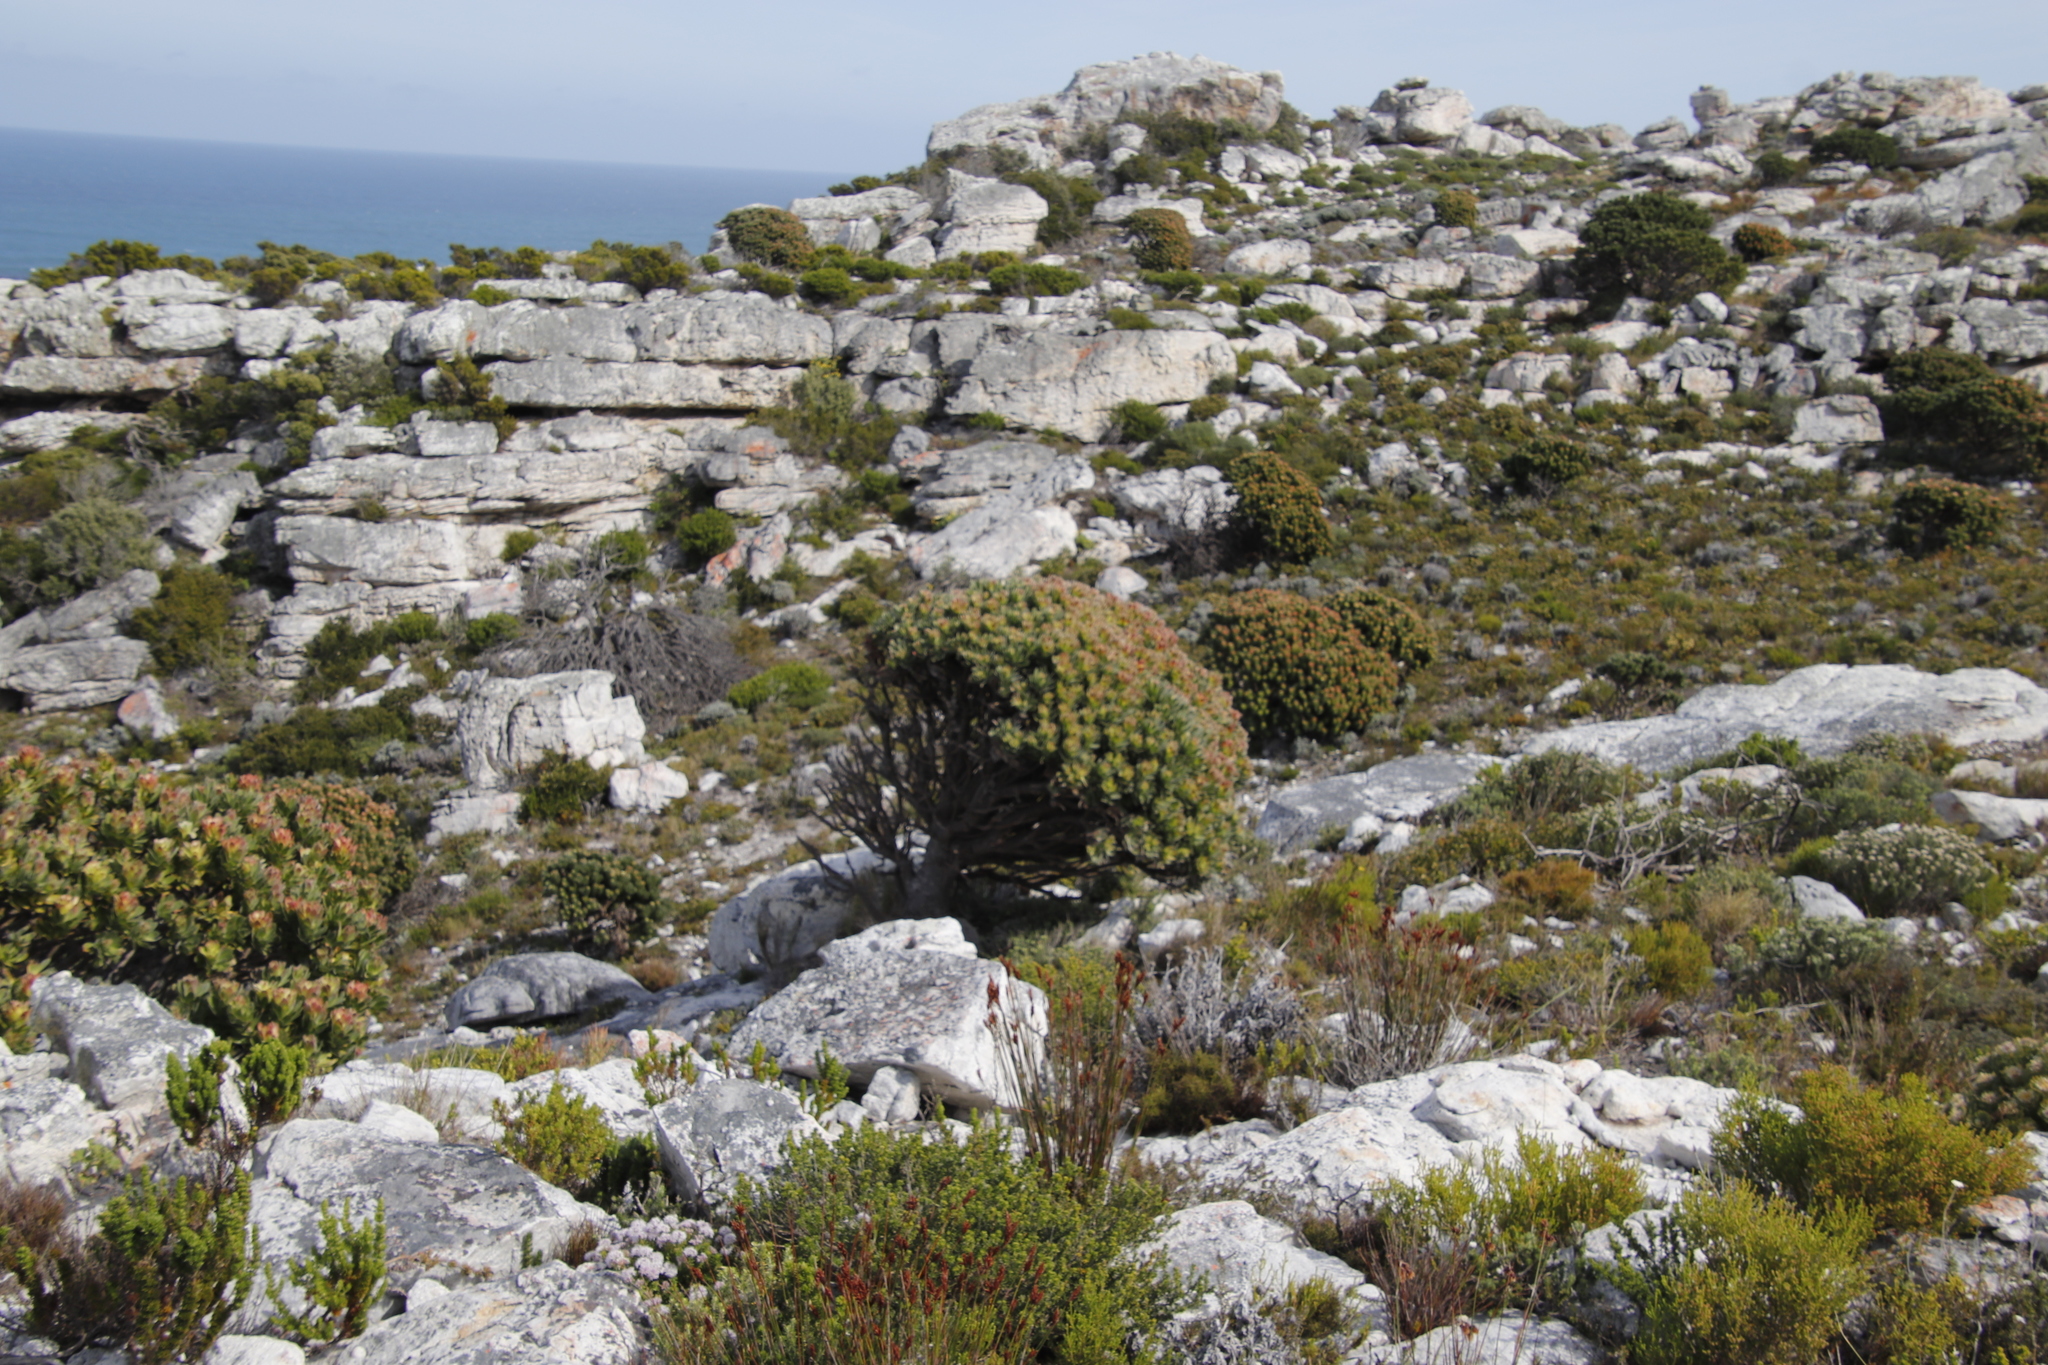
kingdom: Plantae
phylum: Tracheophyta
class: Magnoliopsida
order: Proteales
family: Proteaceae
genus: Mimetes
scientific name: Mimetes fimbriifolius
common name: Fringed bottlebrush
